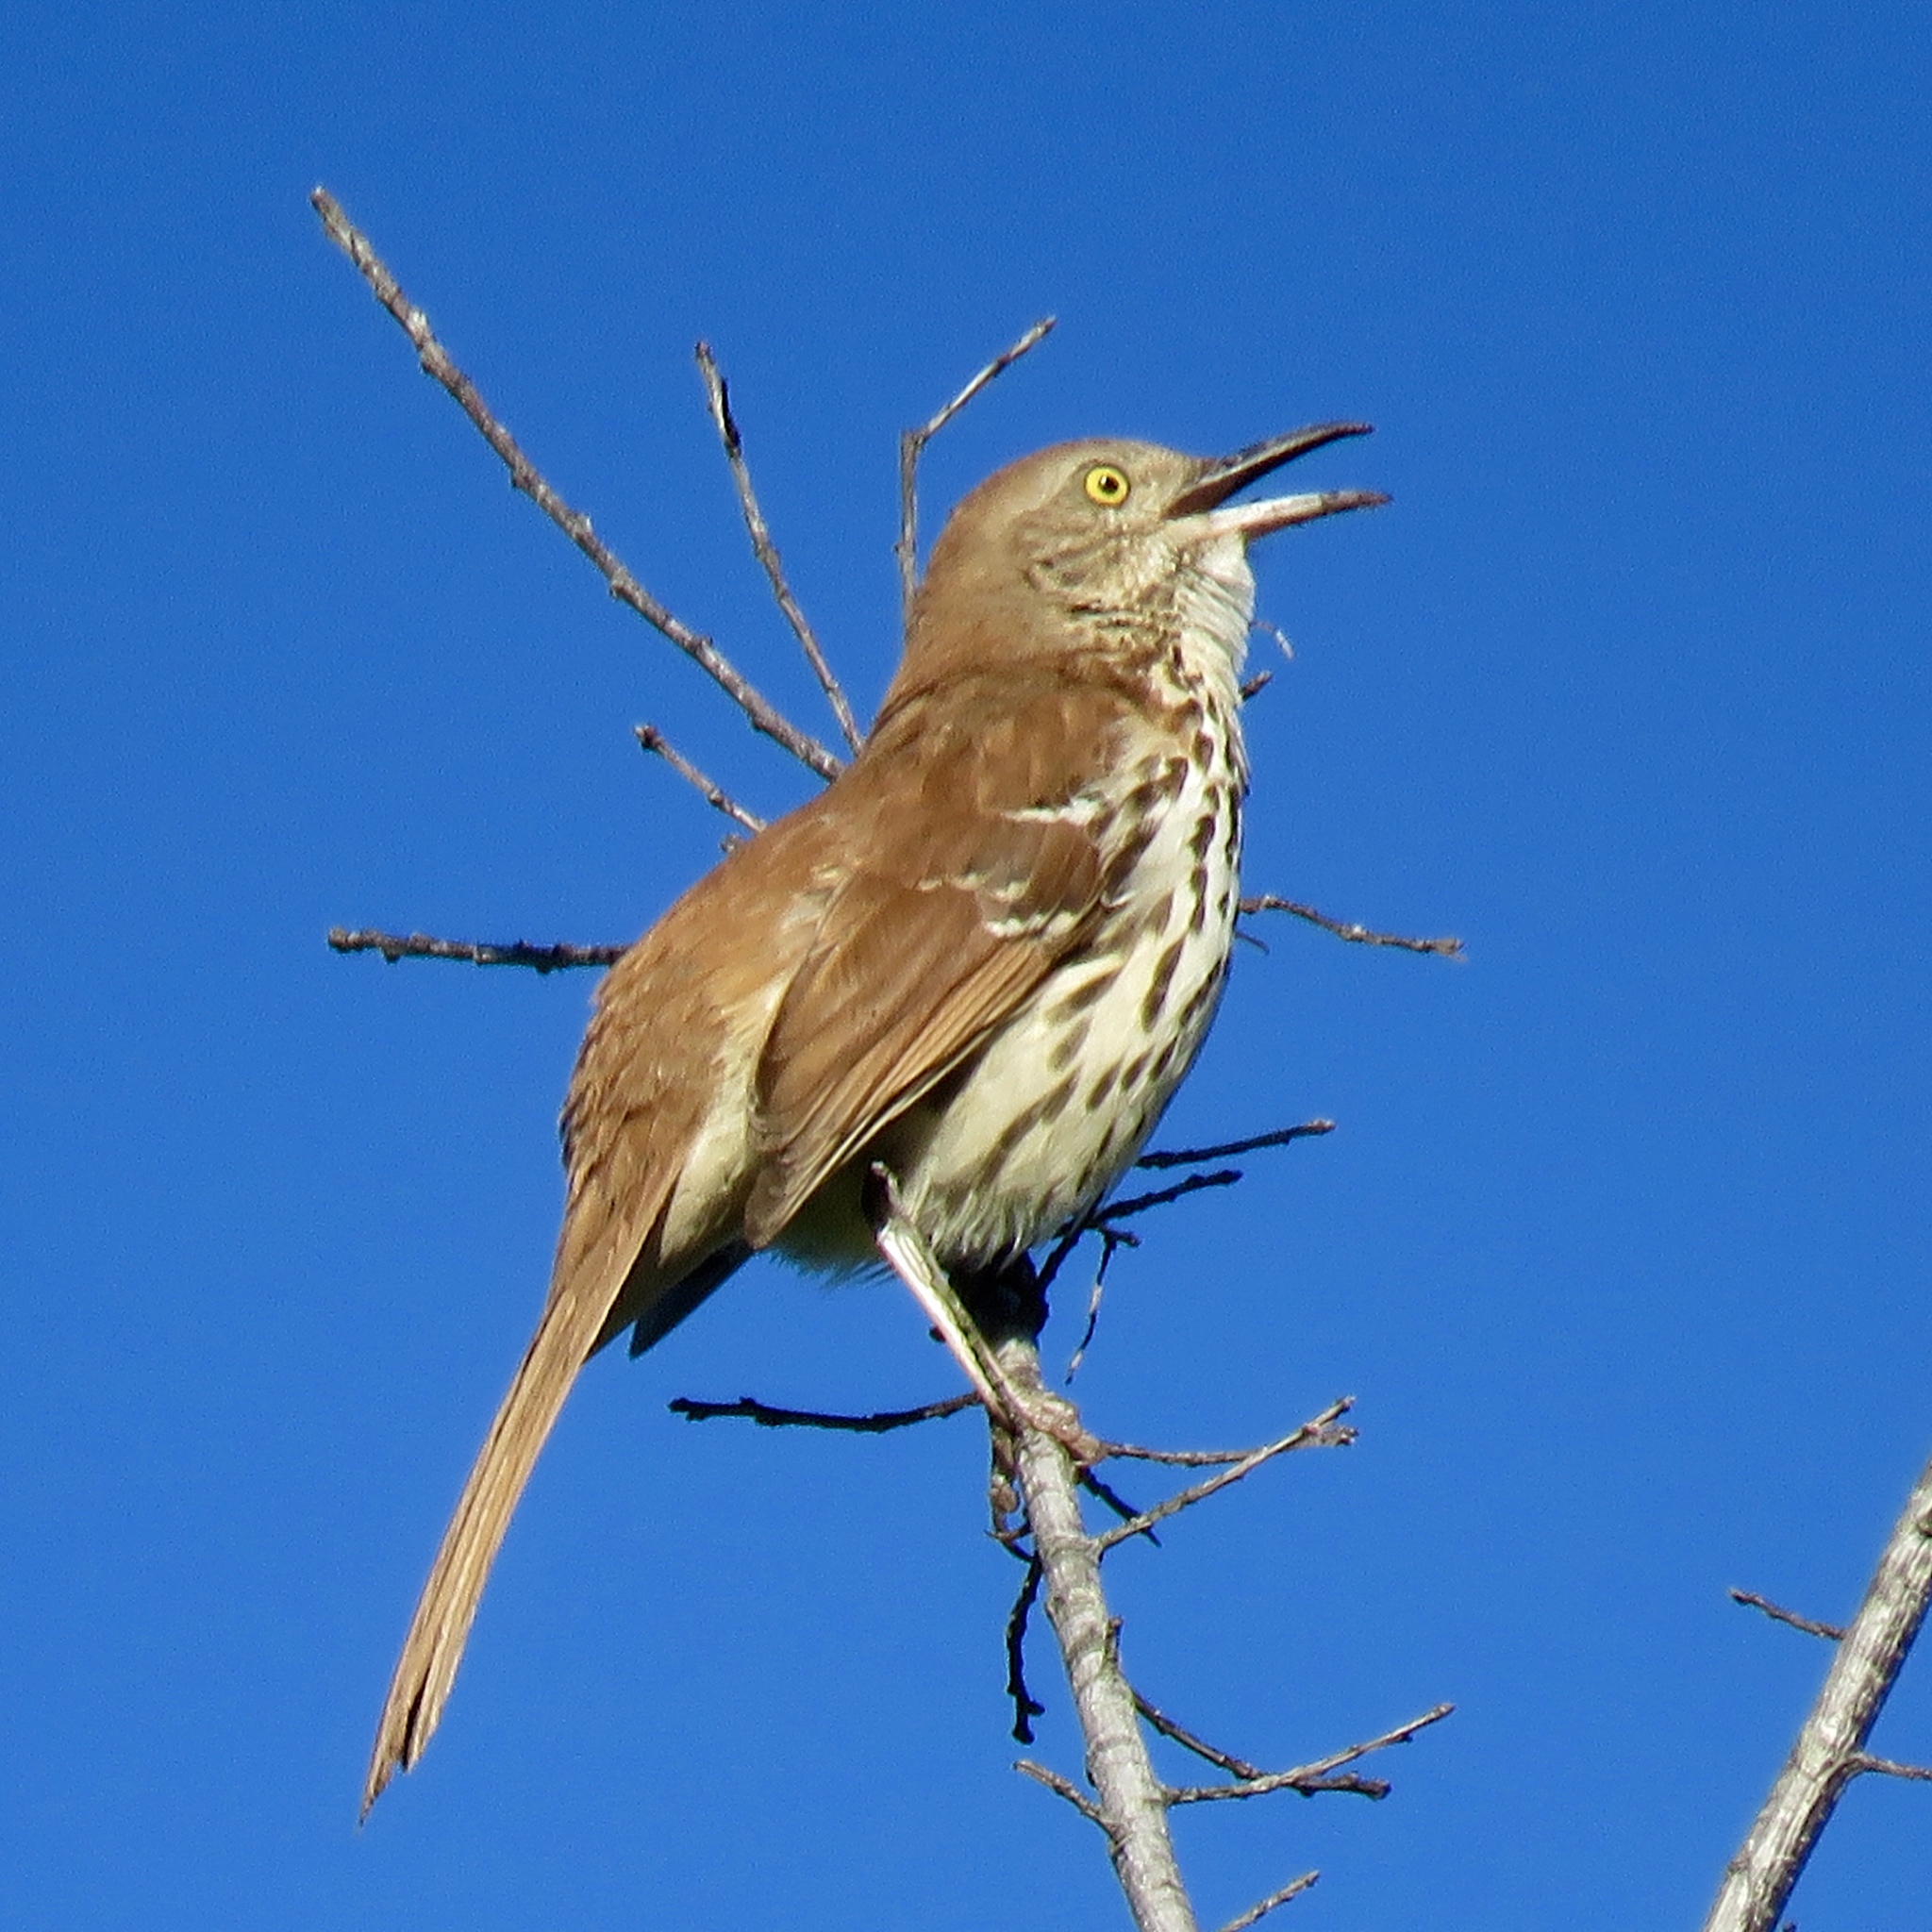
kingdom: Animalia
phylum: Chordata
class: Aves
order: Passeriformes
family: Mimidae
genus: Toxostoma
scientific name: Toxostoma rufum
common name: Brown thrasher
